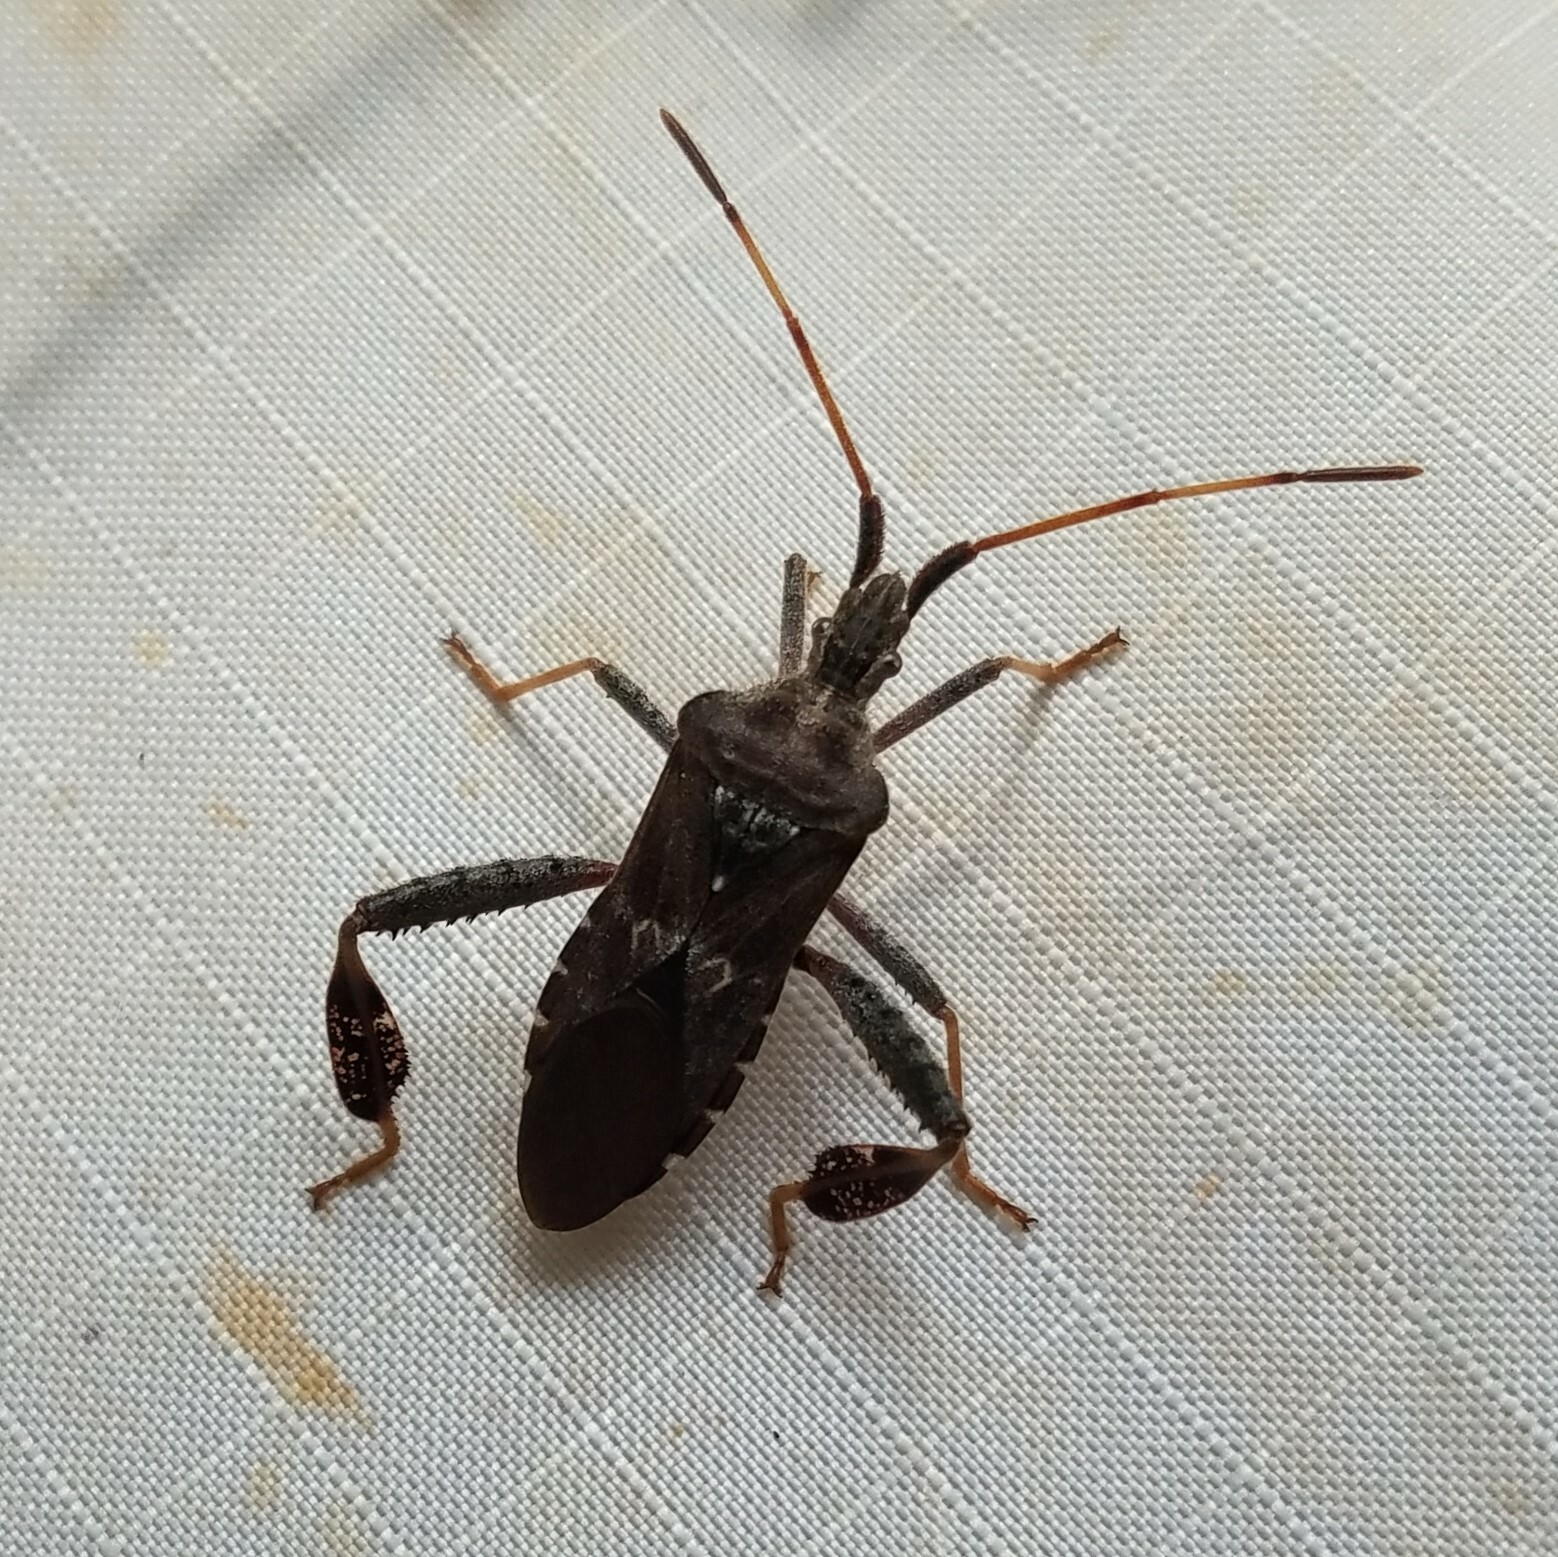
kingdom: Animalia
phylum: Arthropoda
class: Insecta
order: Hemiptera
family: Coreidae
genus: Leptoglossus
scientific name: Leptoglossus corculus
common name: Southern pine seed bug
